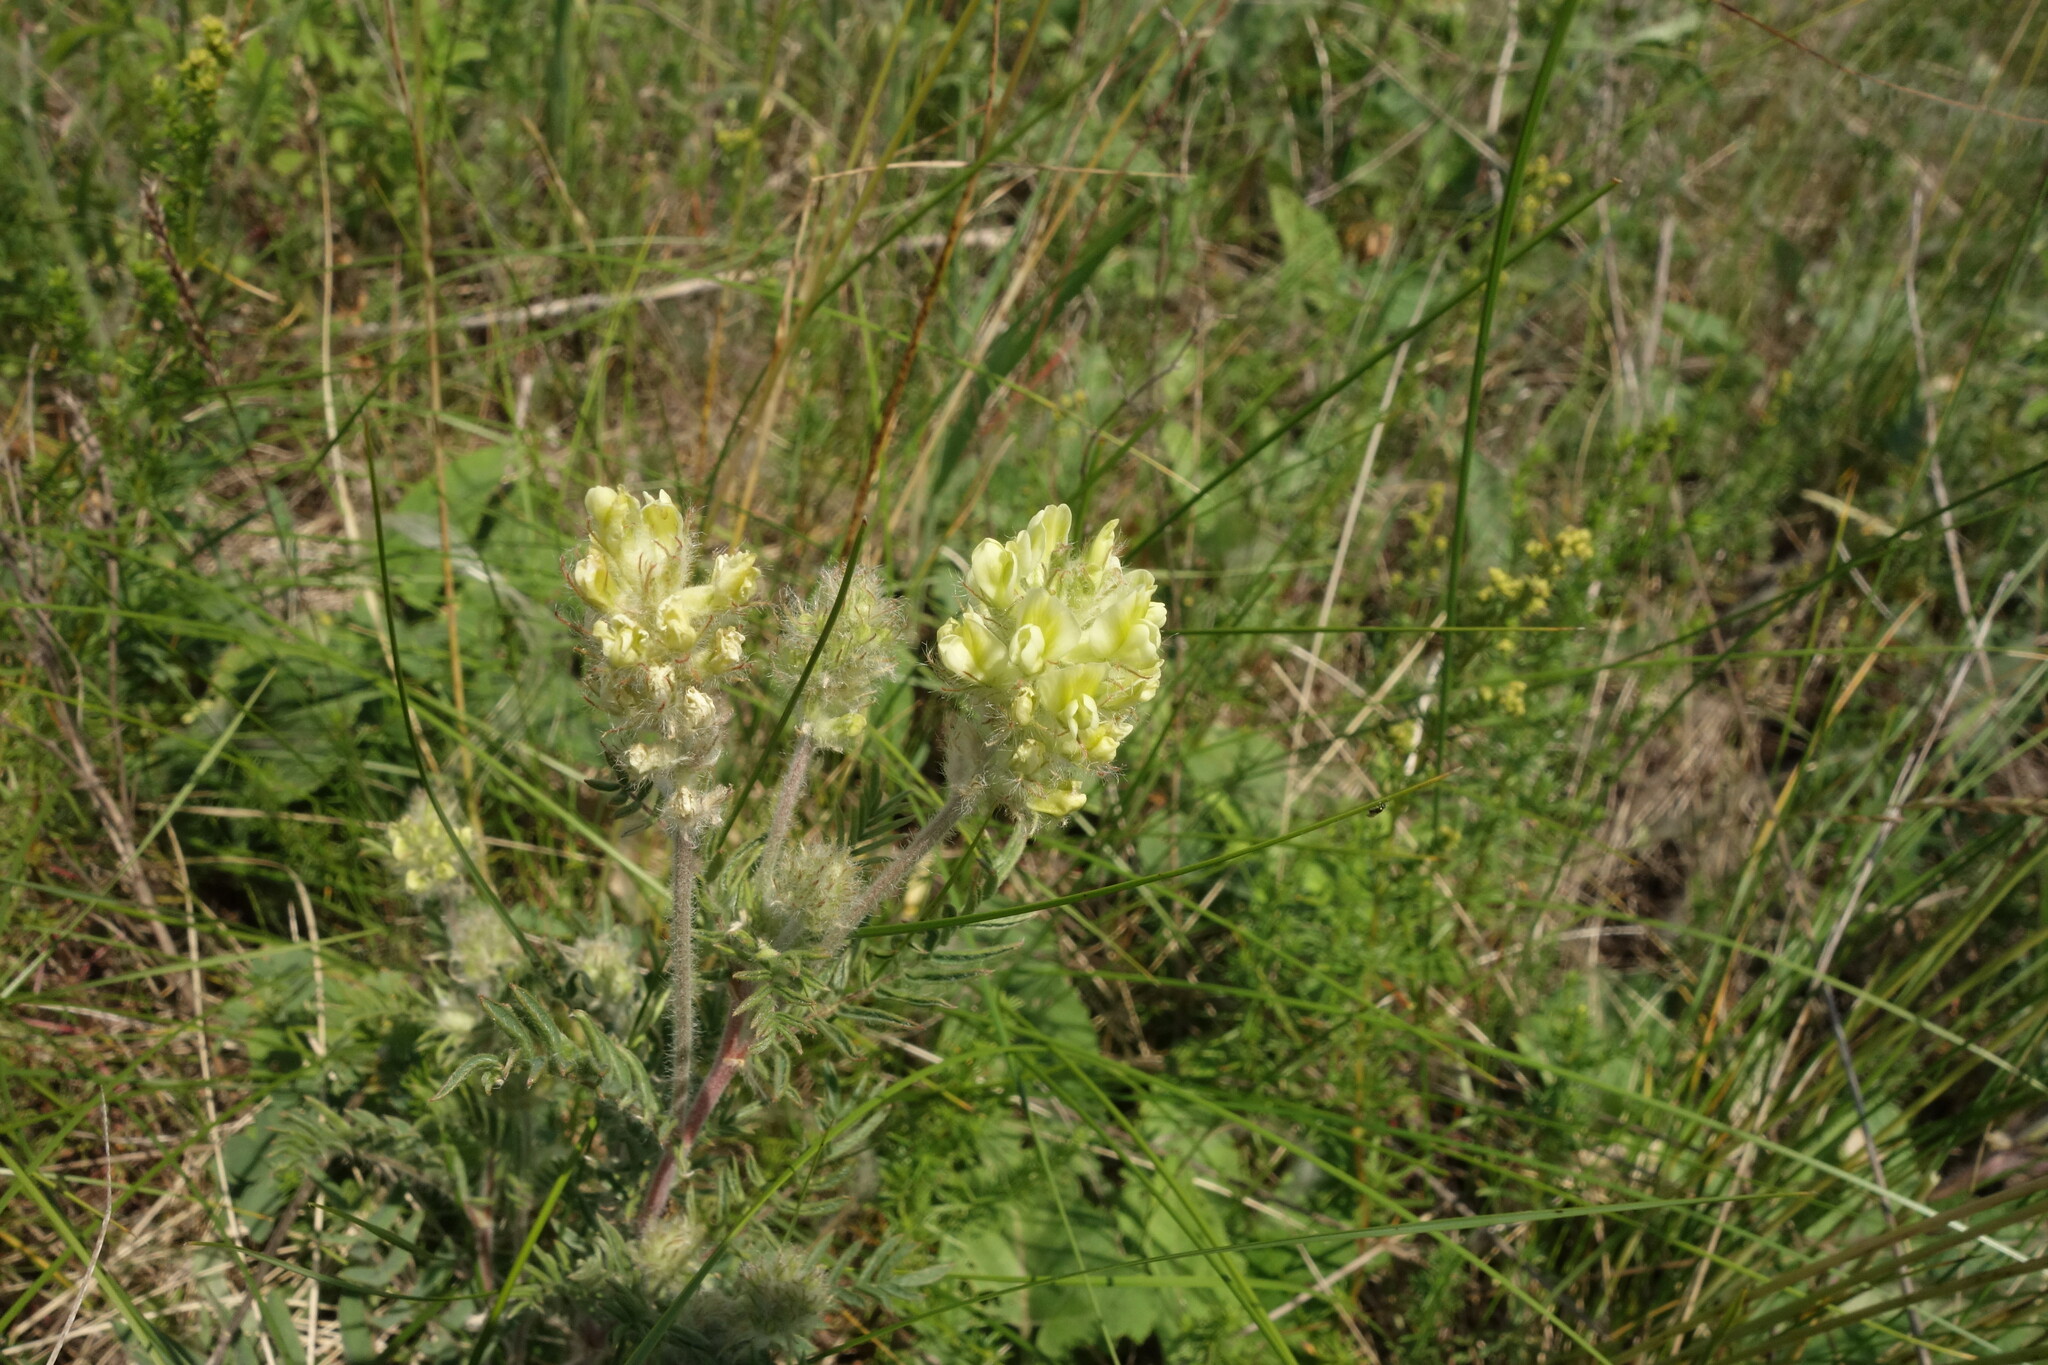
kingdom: Plantae
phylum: Tracheophyta
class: Magnoliopsida
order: Fabales
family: Fabaceae
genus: Oxytropis
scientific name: Oxytropis pilosa
